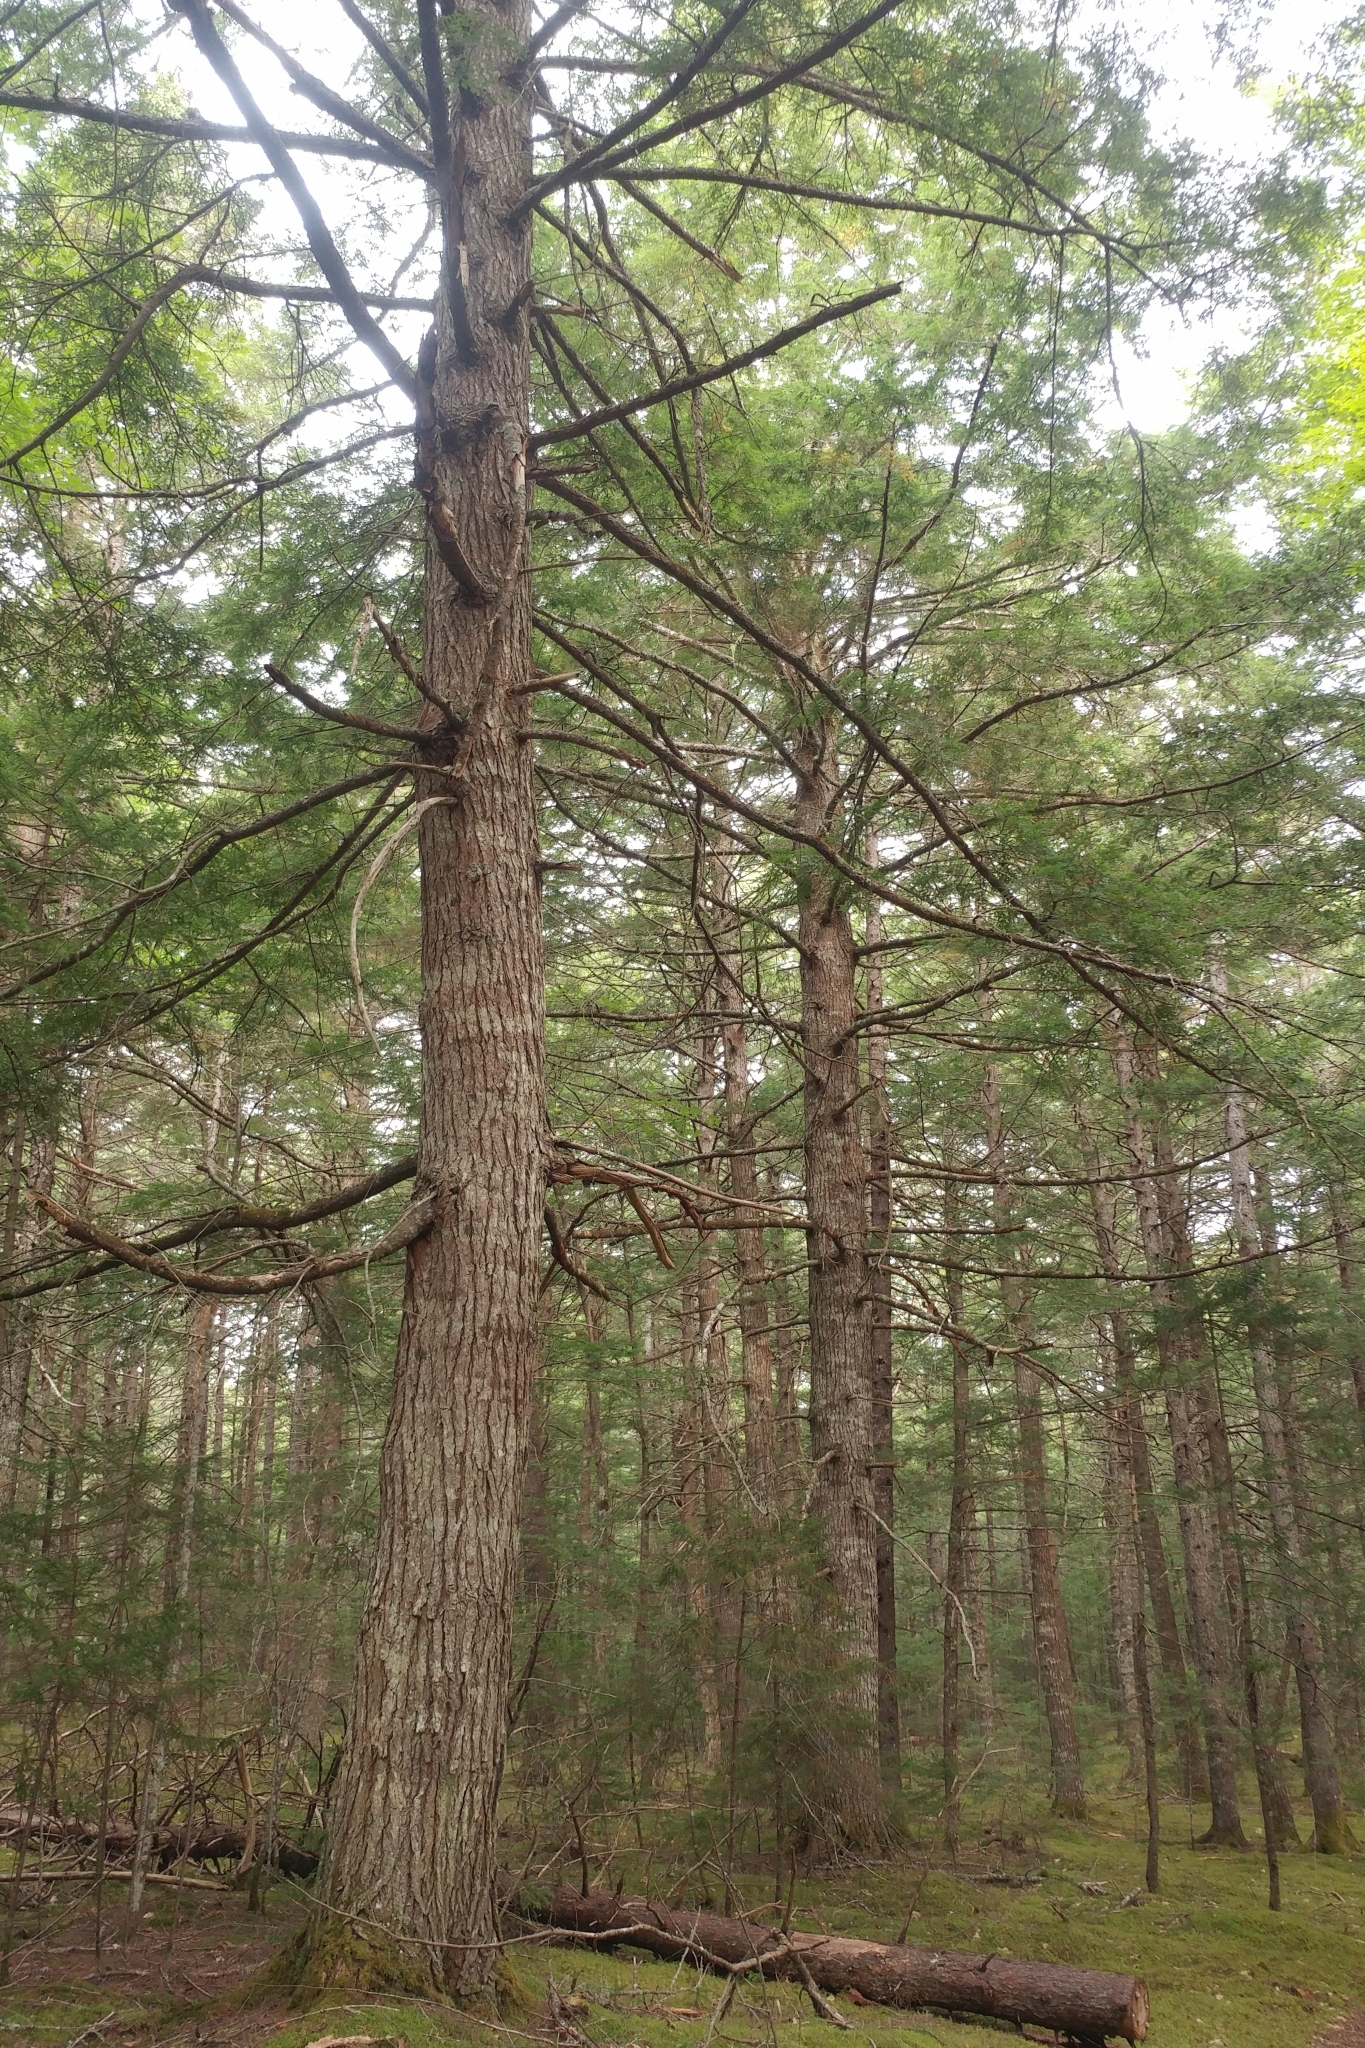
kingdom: Plantae
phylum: Tracheophyta
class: Pinopsida
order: Pinales
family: Pinaceae
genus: Tsuga
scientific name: Tsuga canadensis
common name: Eastern hemlock
